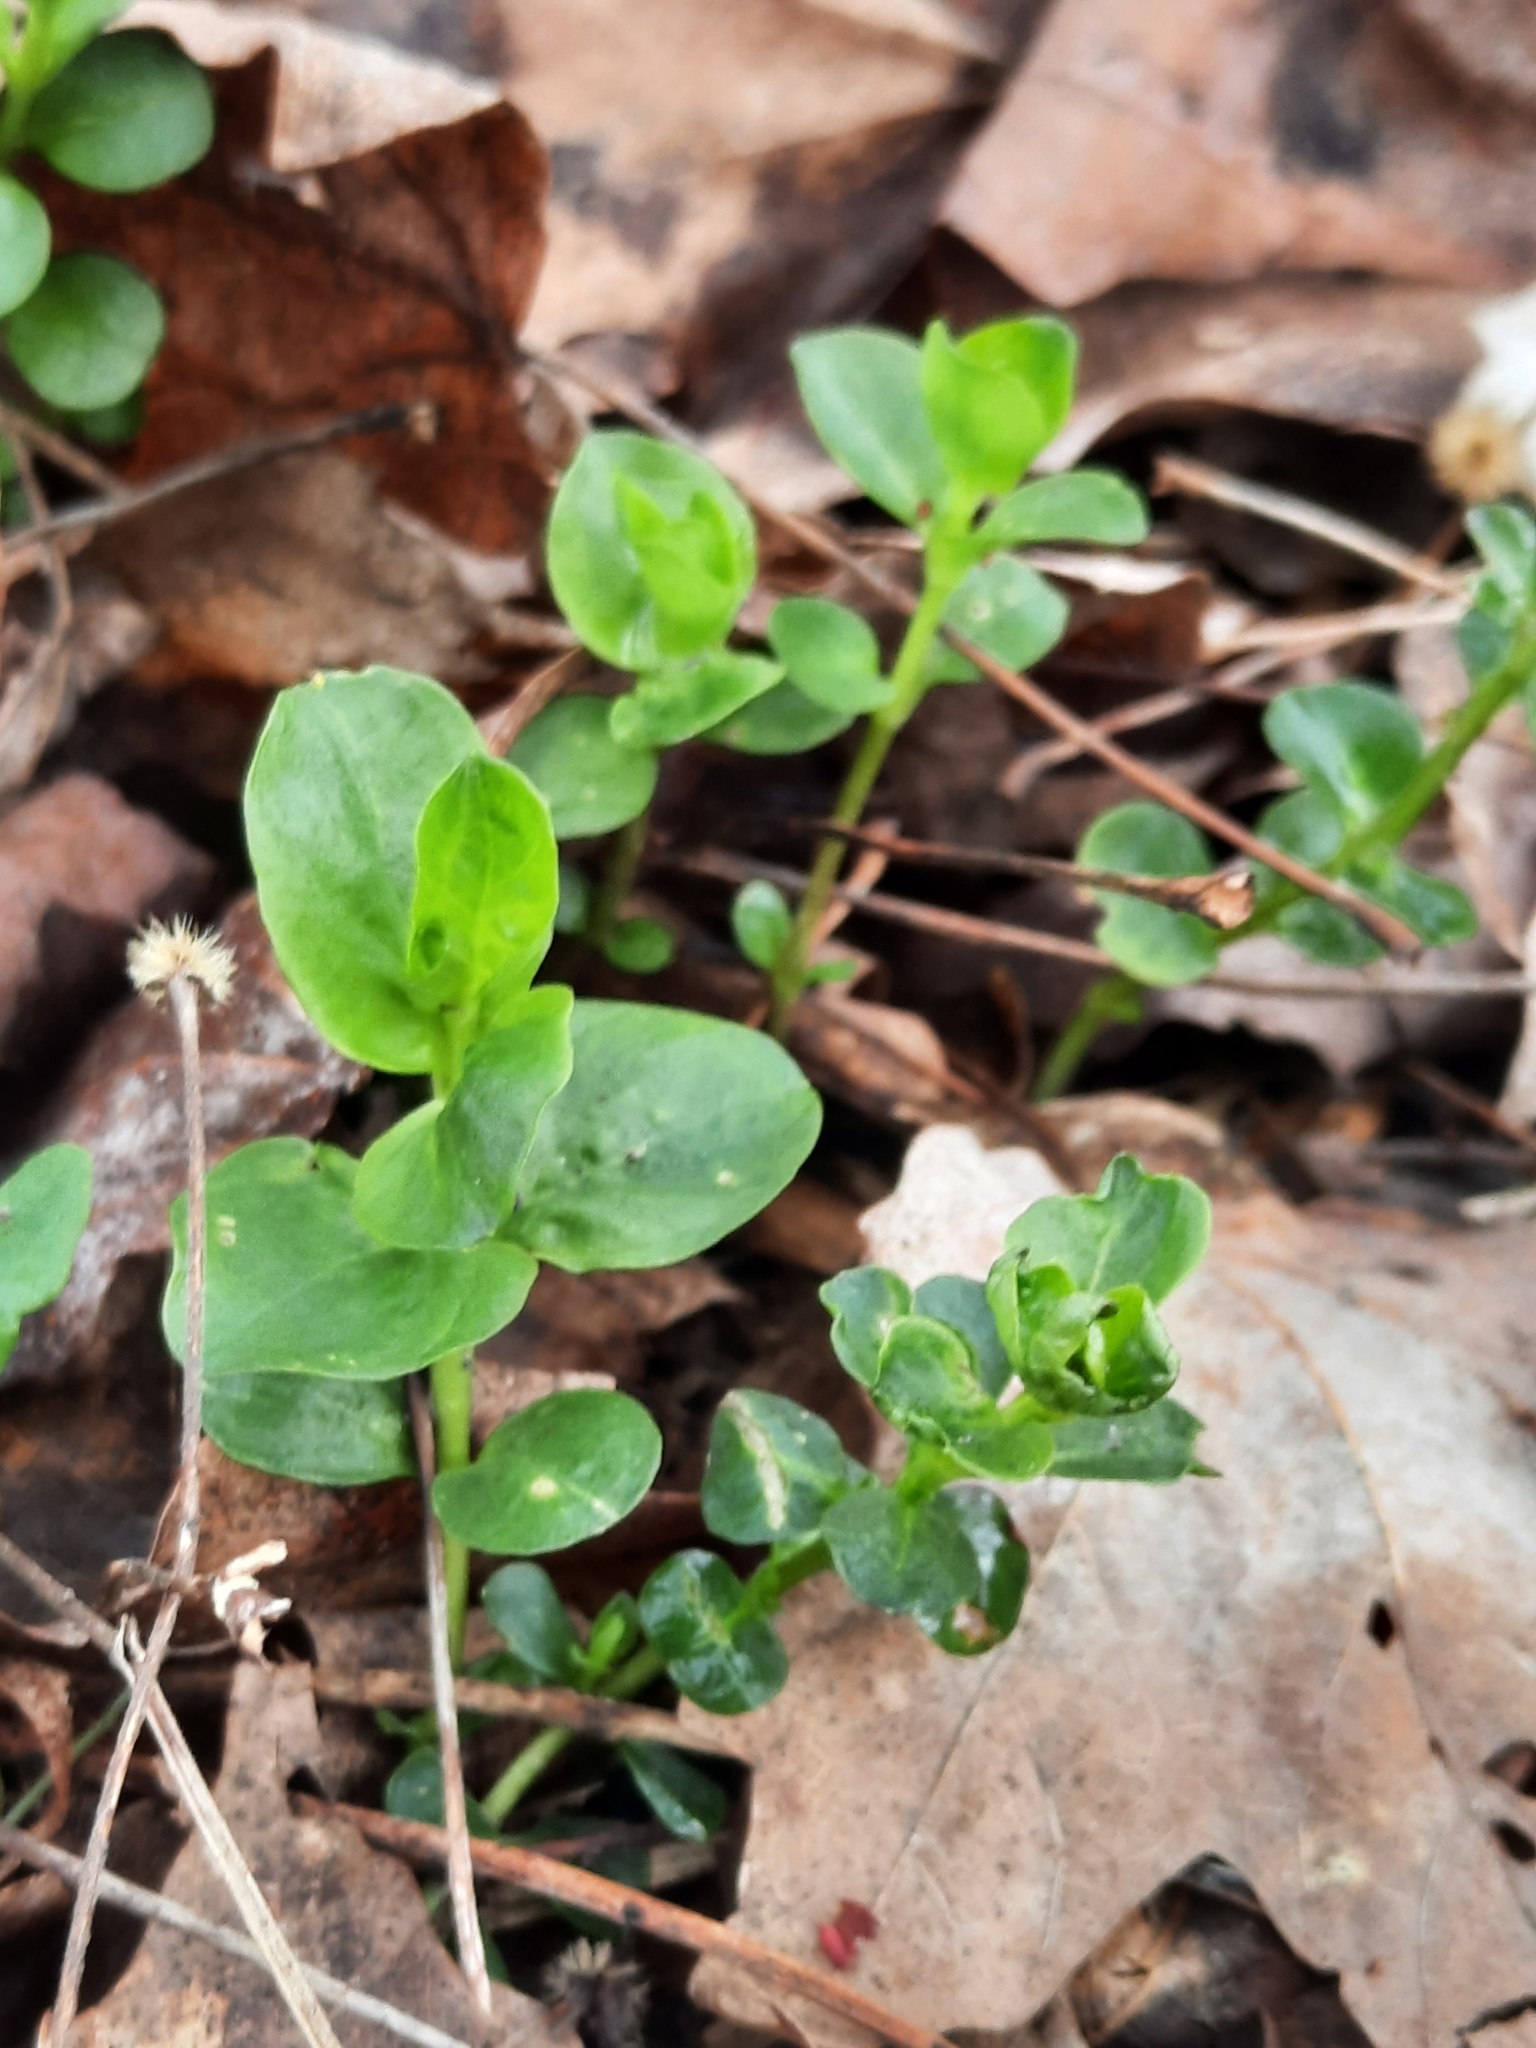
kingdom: Plantae
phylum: Tracheophyta
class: Magnoliopsida
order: Ericales
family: Primulaceae
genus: Lysimachia
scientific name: Lysimachia nummularia
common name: Moneywort
